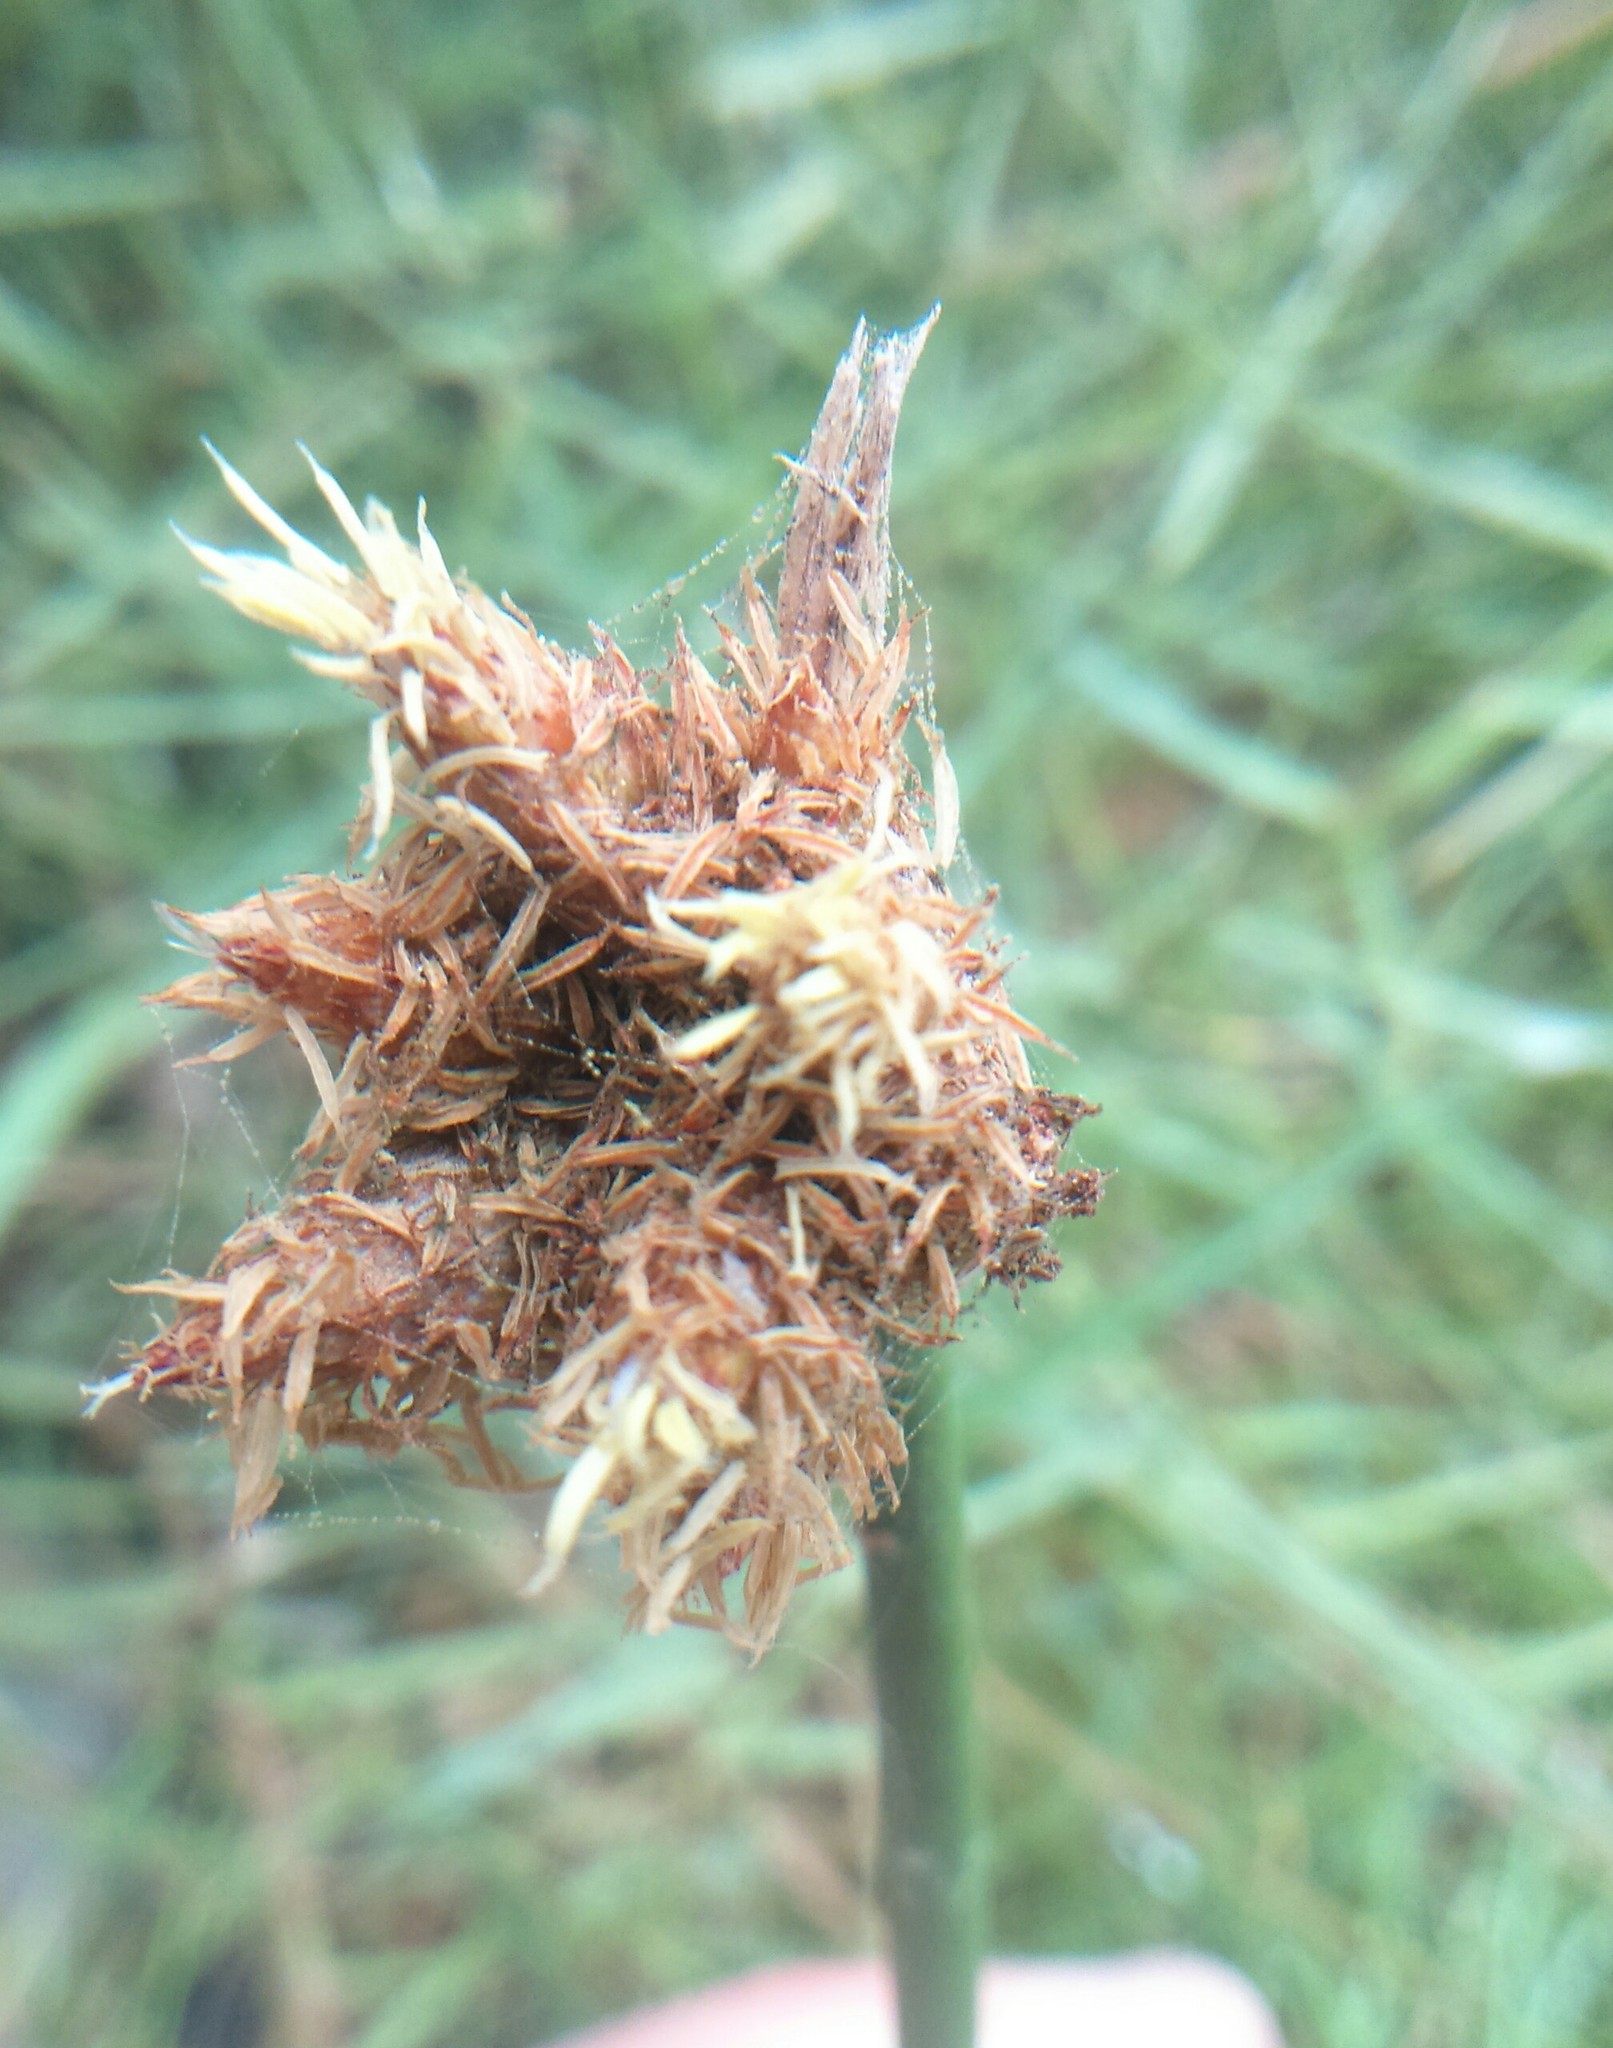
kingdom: Plantae
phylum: Tracheophyta
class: Liliopsida
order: Poales
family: Cyperaceae
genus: Schoenoplectus
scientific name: Schoenoplectus americanus
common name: American three-square bulrush
